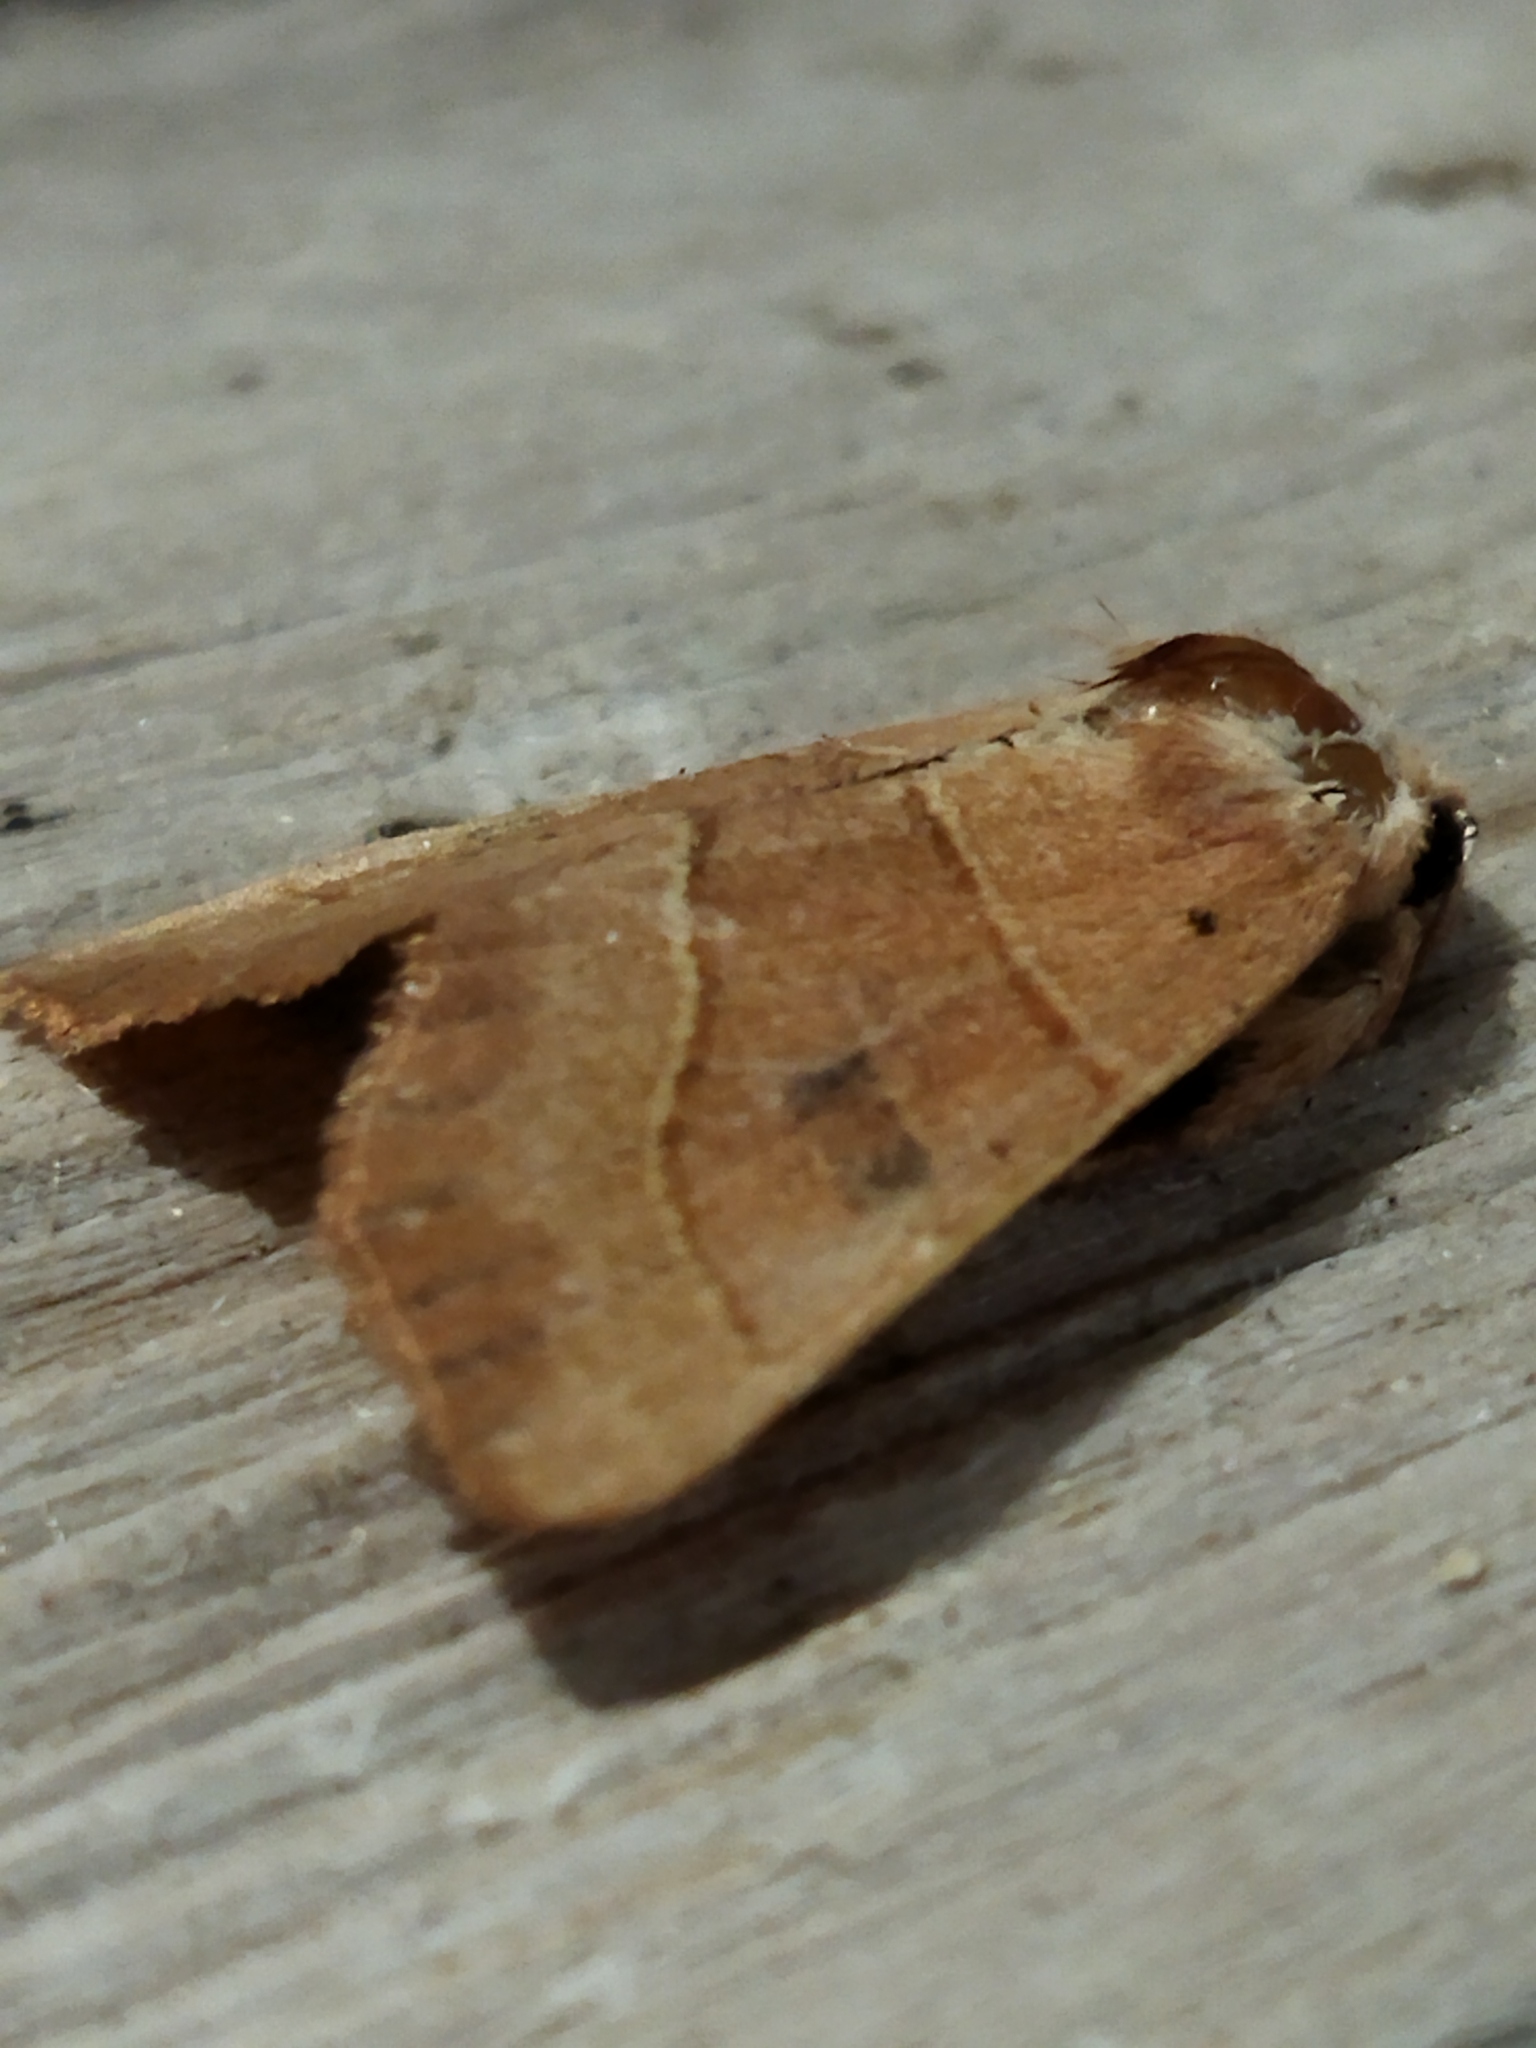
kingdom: Animalia
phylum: Arthropoda
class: Insecta
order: Lepidoptera
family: Noctuidae
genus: Atethmia
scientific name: Atethmia centrago
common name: Centre-barred sallow
